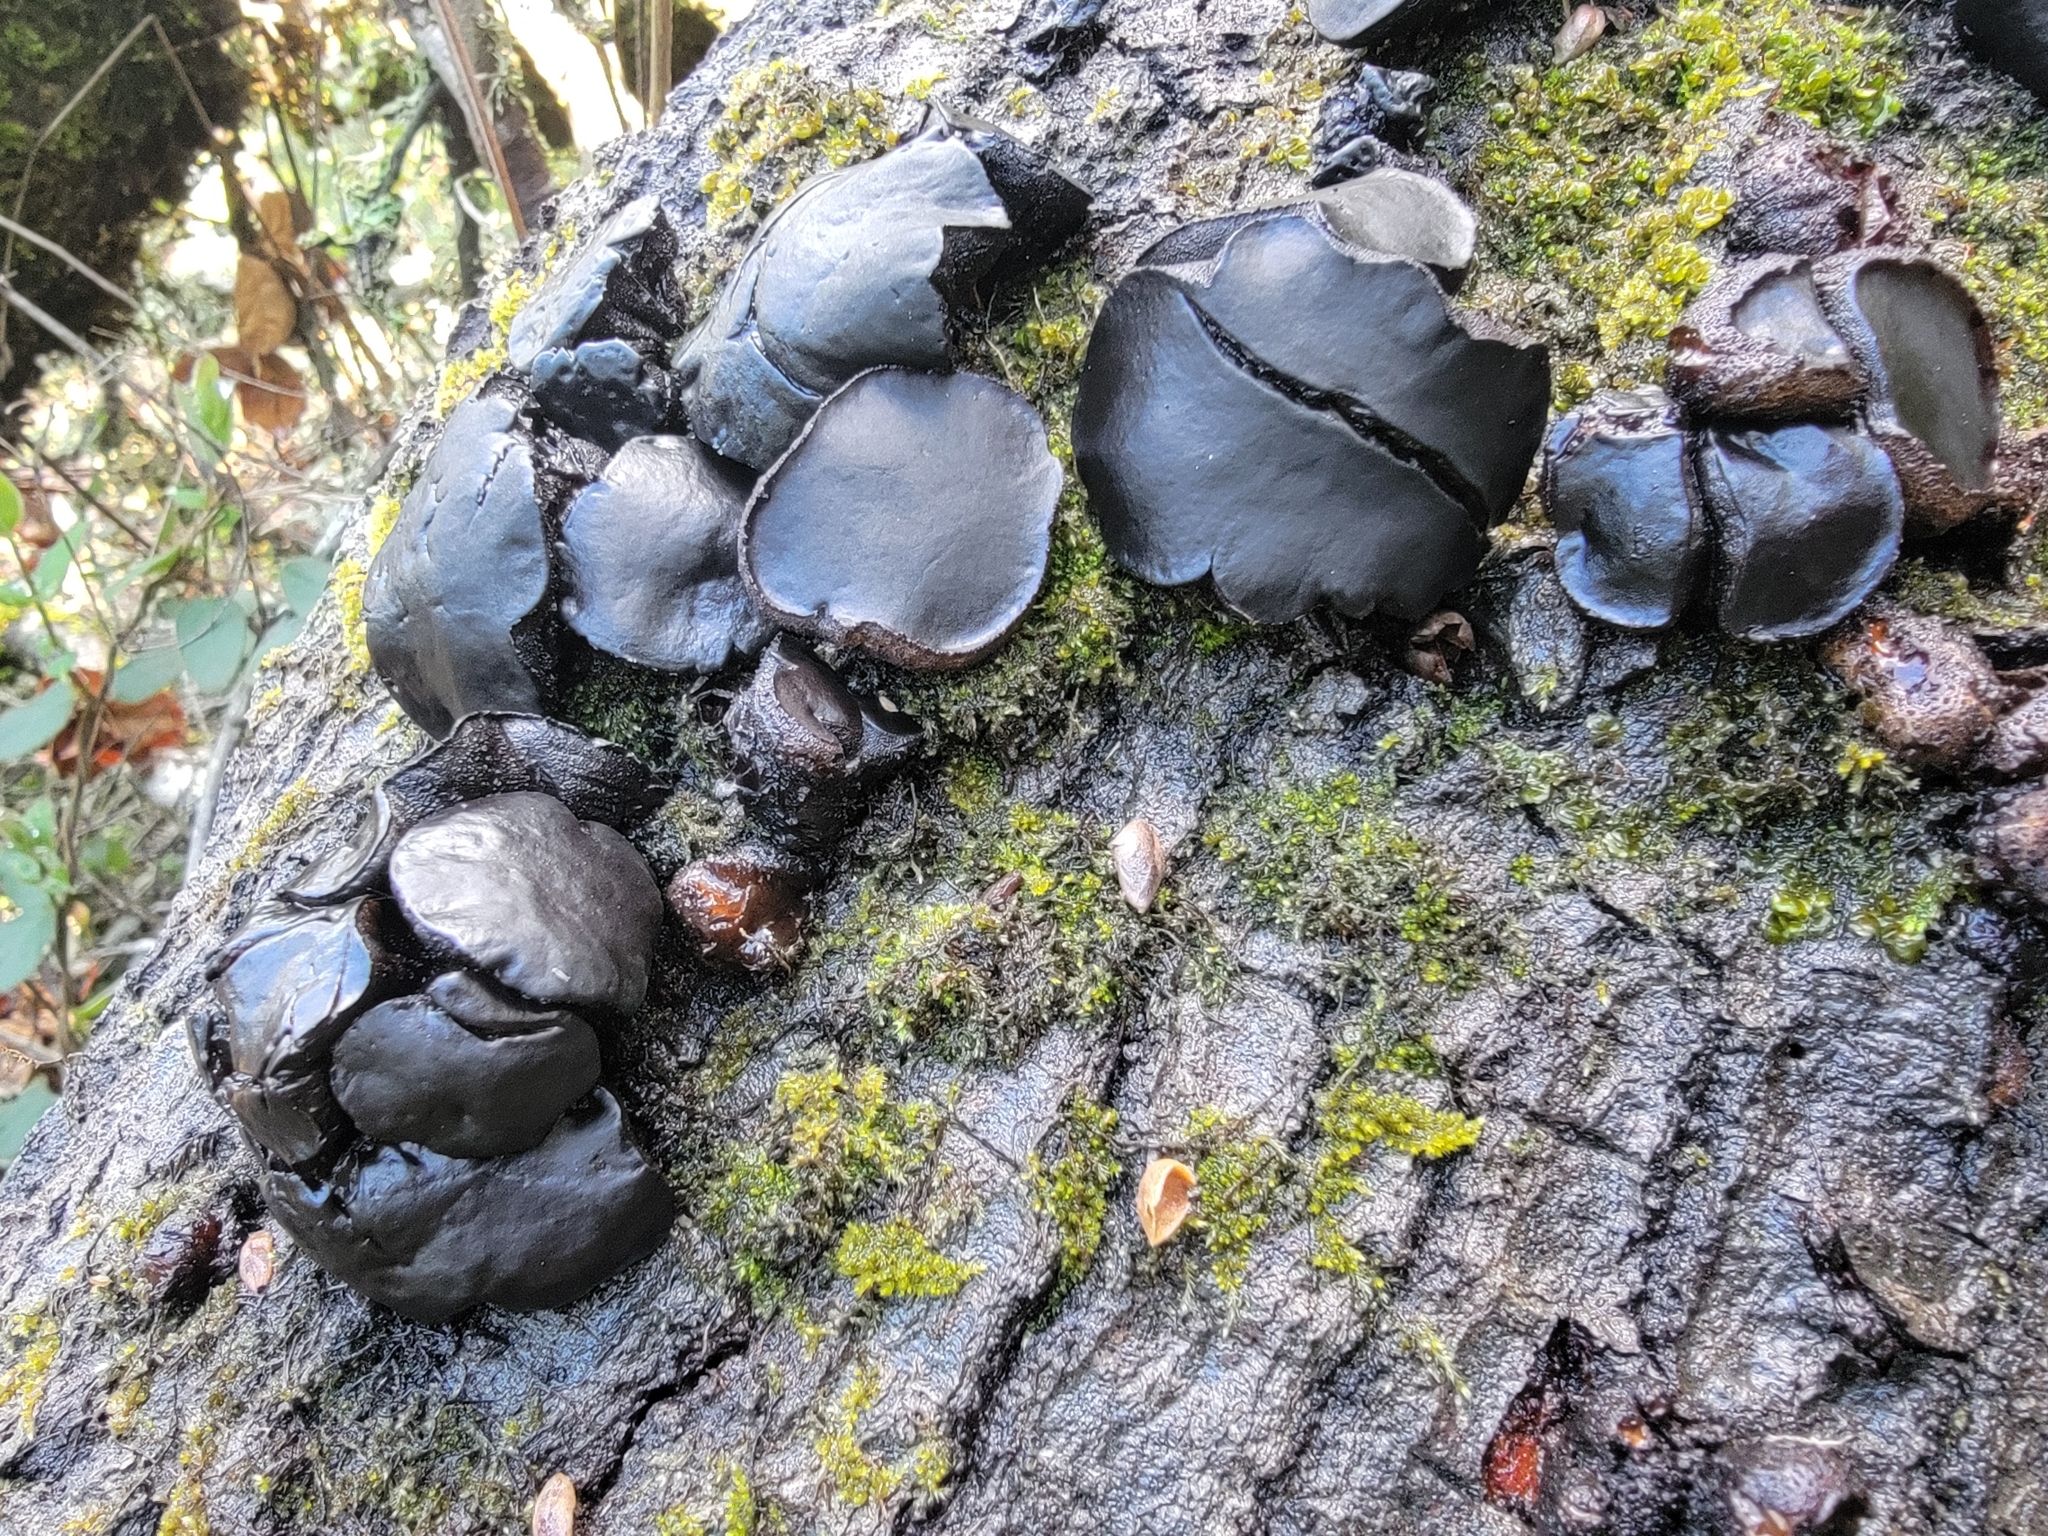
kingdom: Fungi
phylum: Ascomycota
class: Leotiomycetes
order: Phacidiales
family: Phacidiaceae
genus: Bulgaria
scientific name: Bulgaria inquinans
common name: Black bulgar
